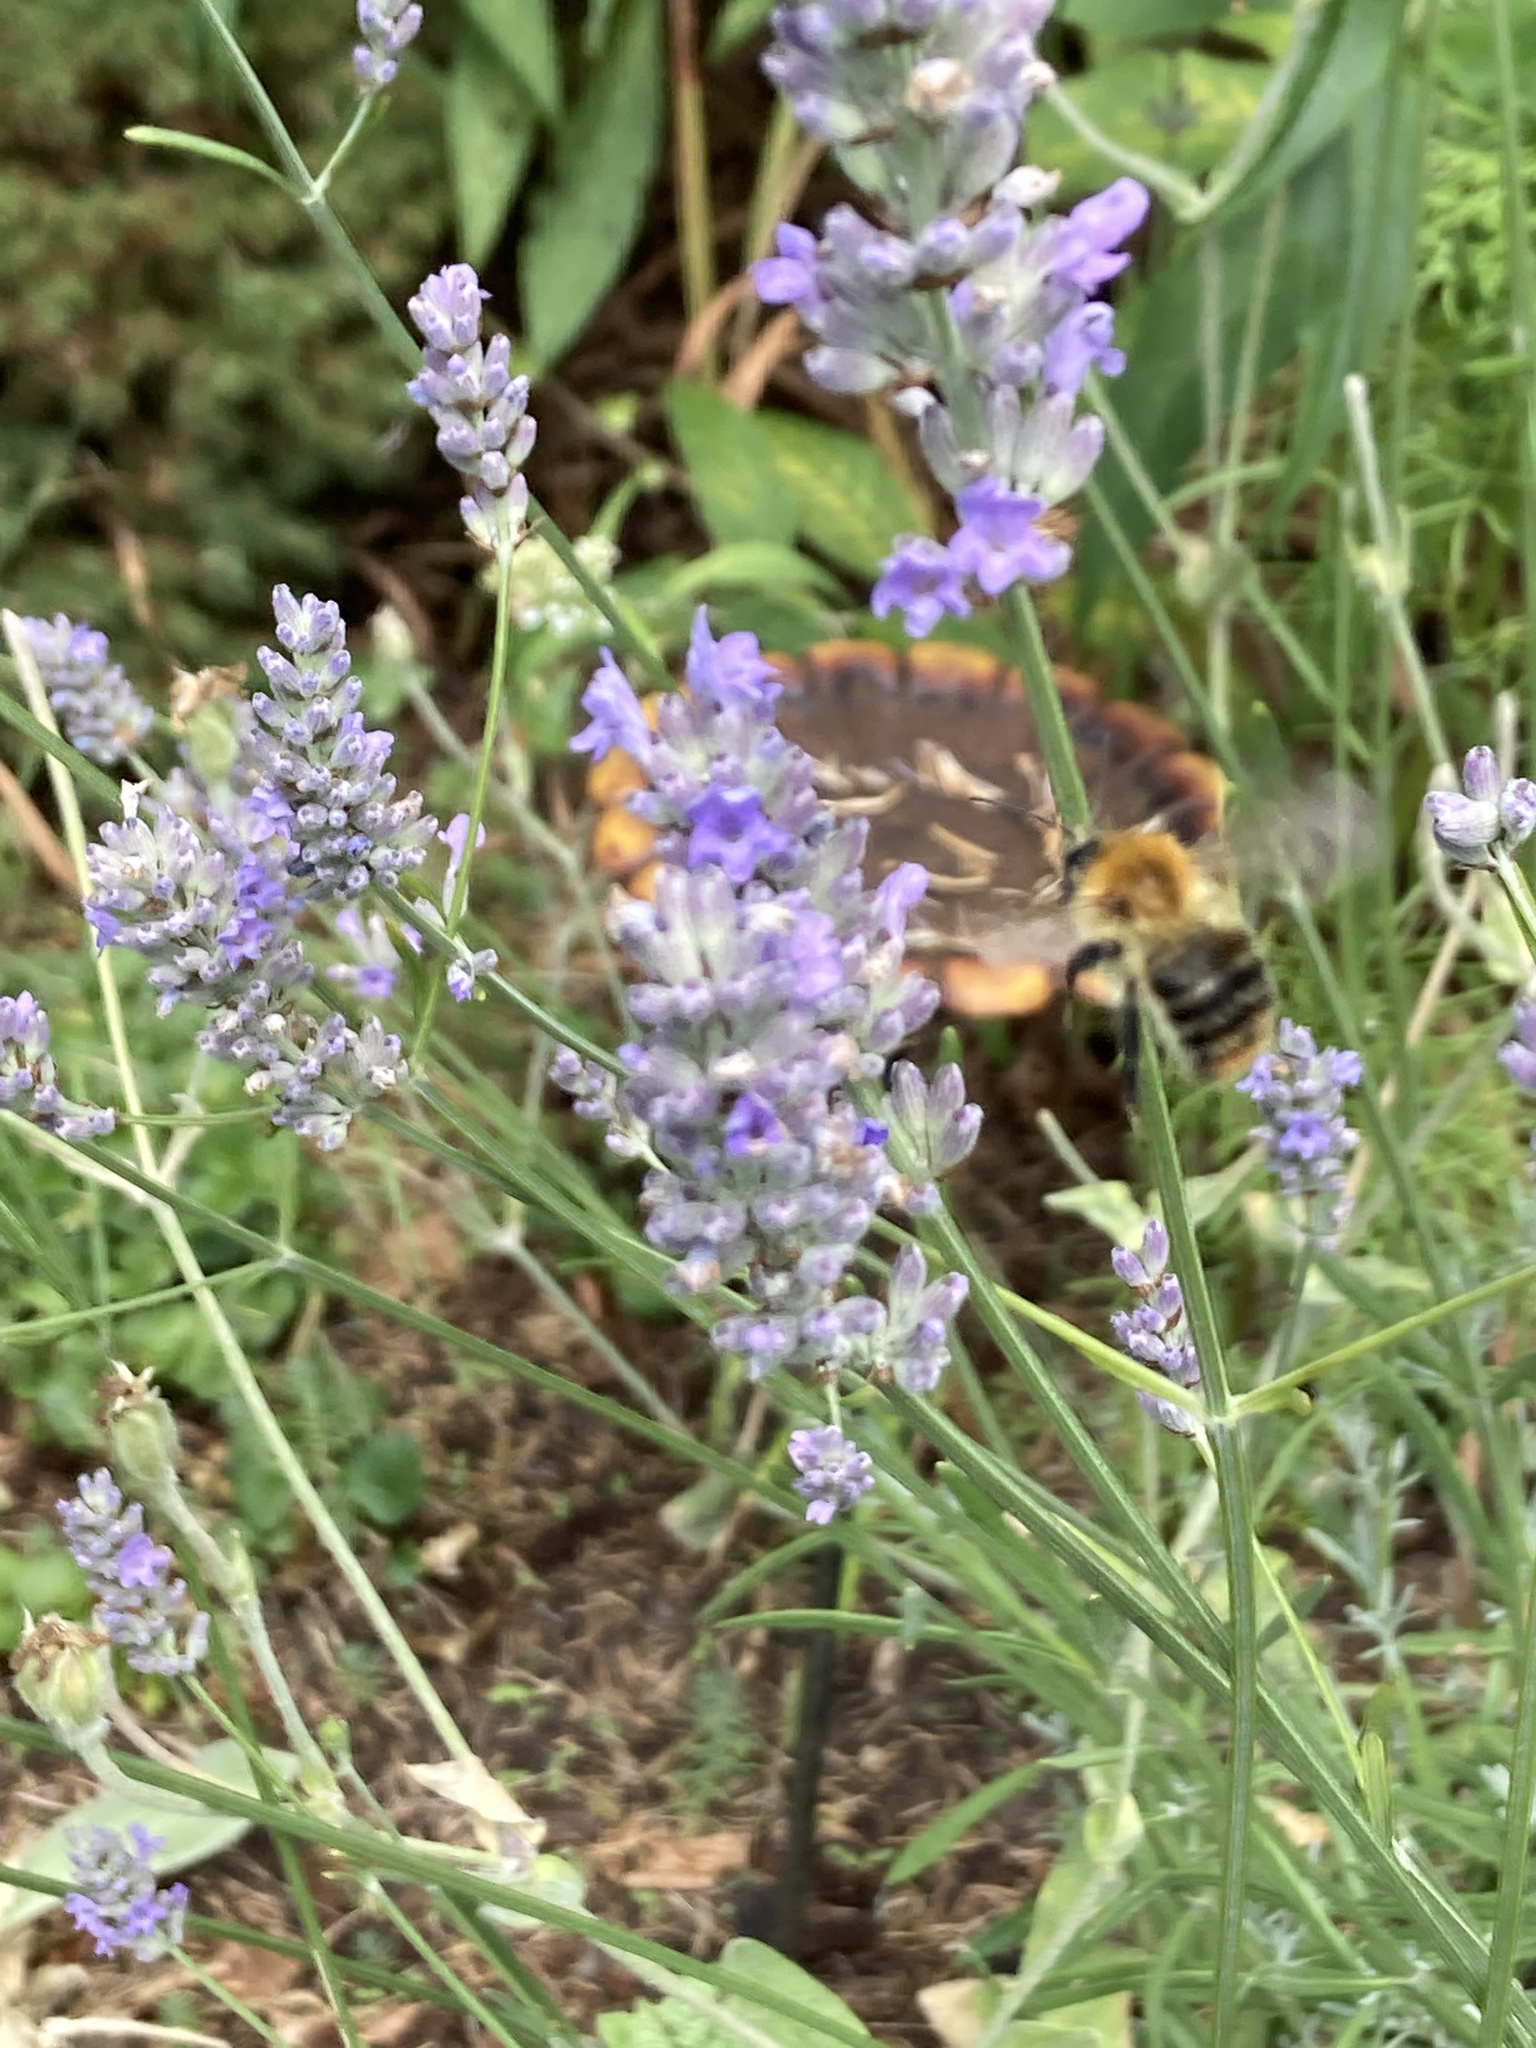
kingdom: Animalia
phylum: Arthropoda
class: Insecta
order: Hymenoptera
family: Apidae
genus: Bombus
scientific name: Bombus pascuorum
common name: Common carder bee
